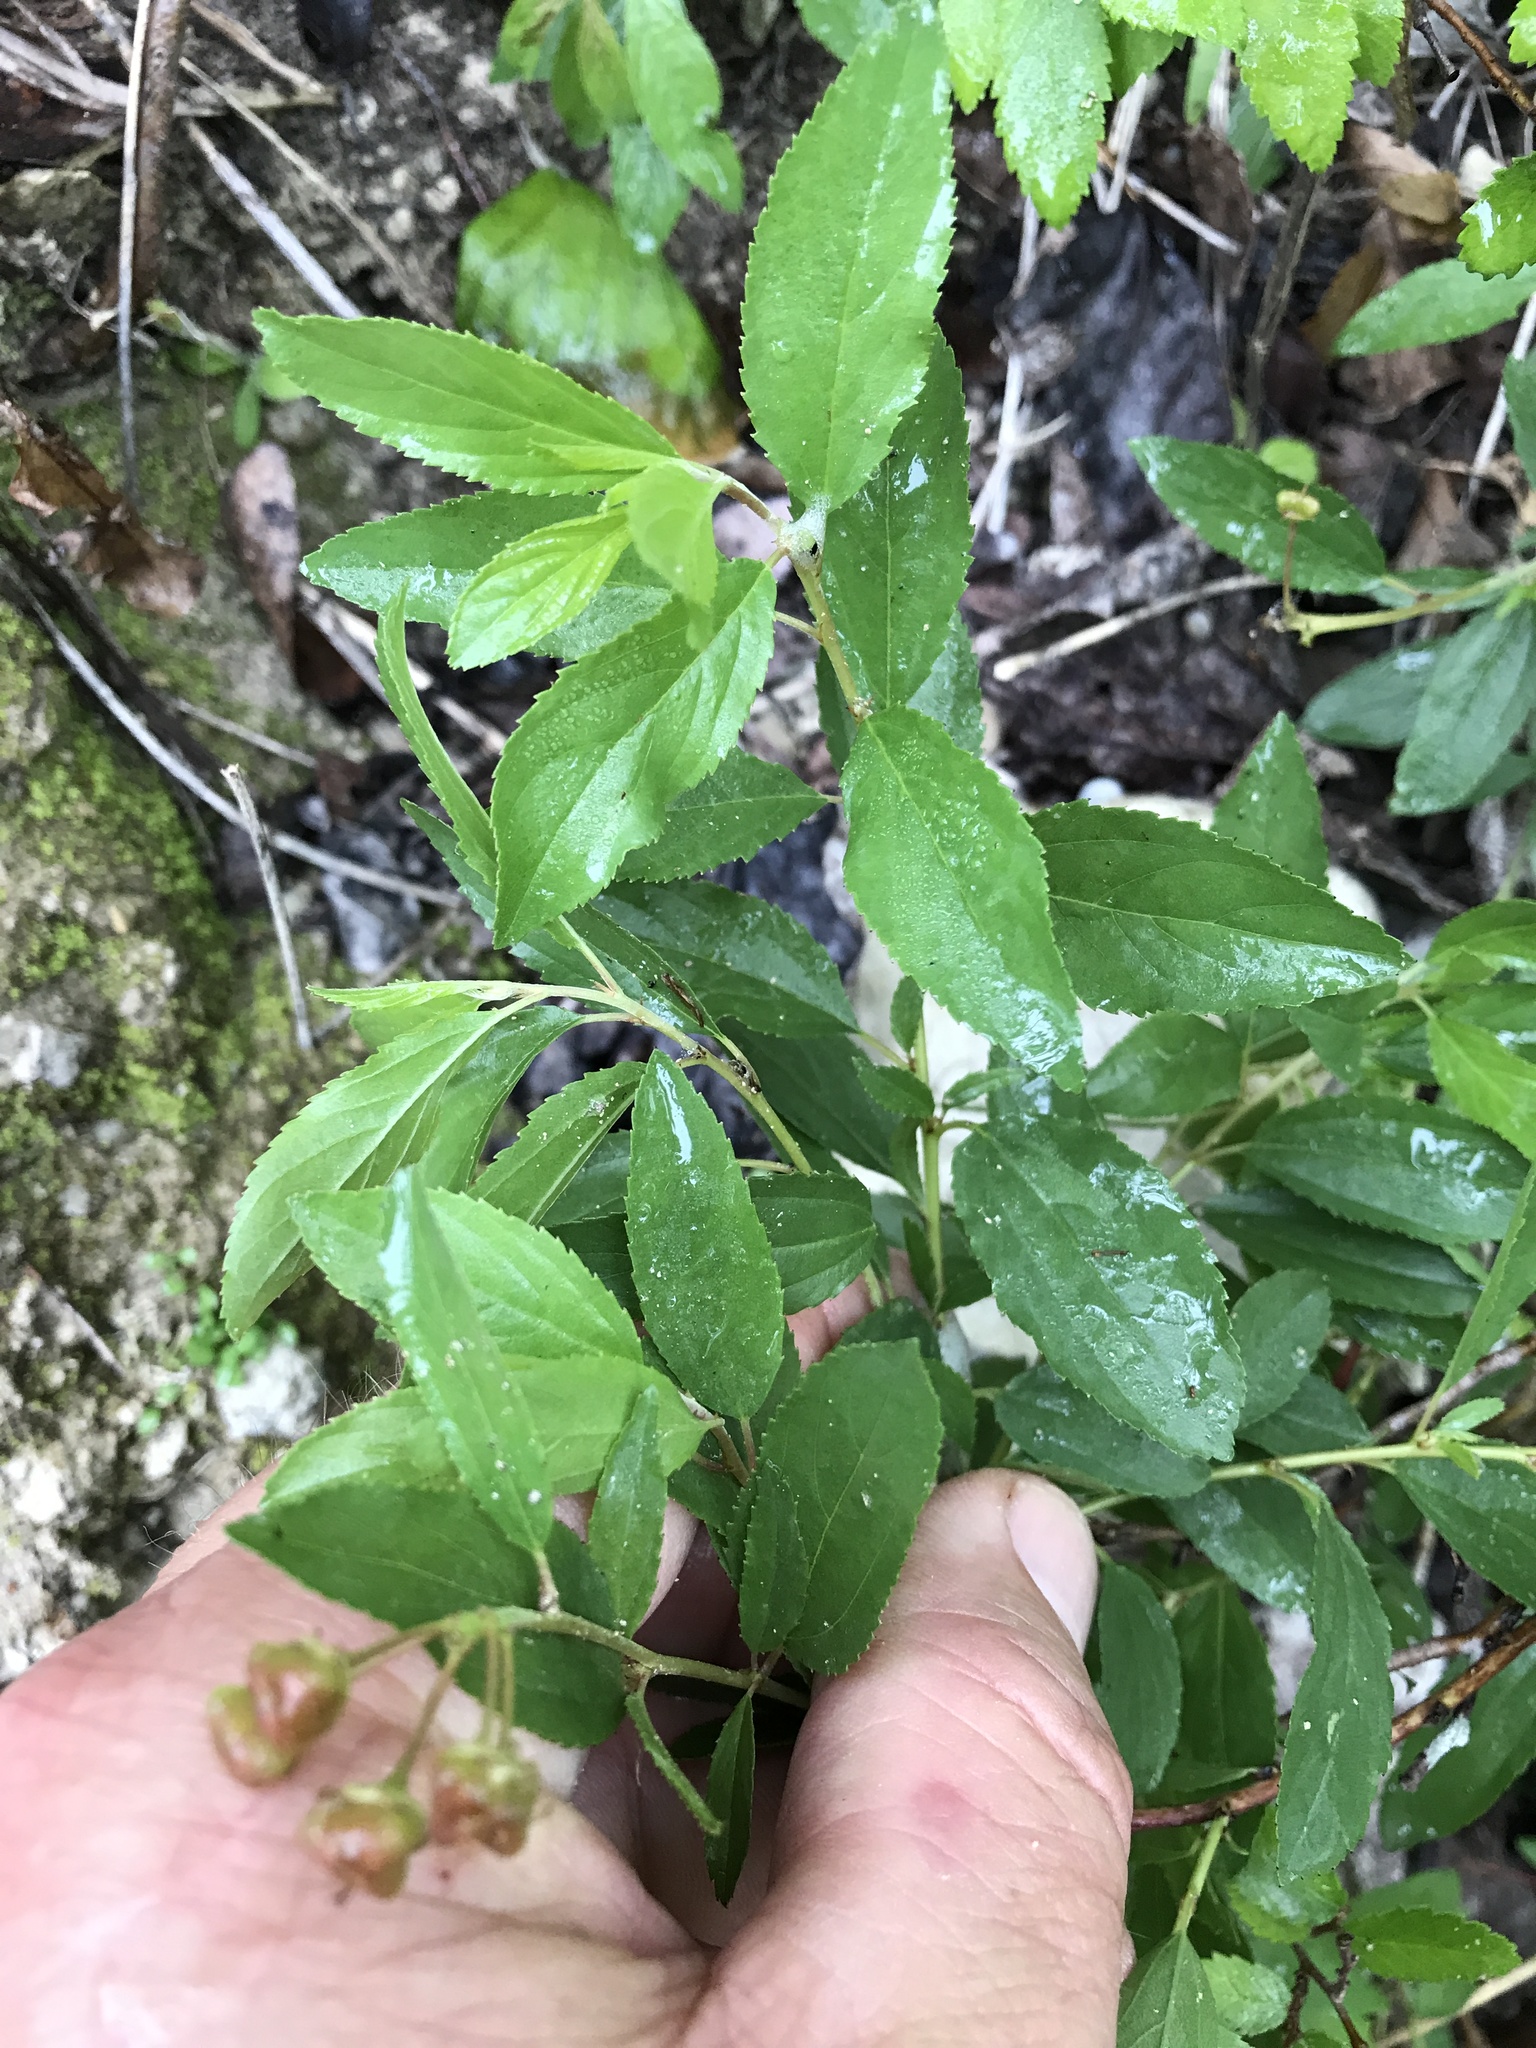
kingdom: Plantae
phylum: Tracheophyta
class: Magnoliopsida
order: Rosales
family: Rhamnaceae
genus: Ceanothus
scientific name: Ceanothus herbaceus
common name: Inland ceanothus
